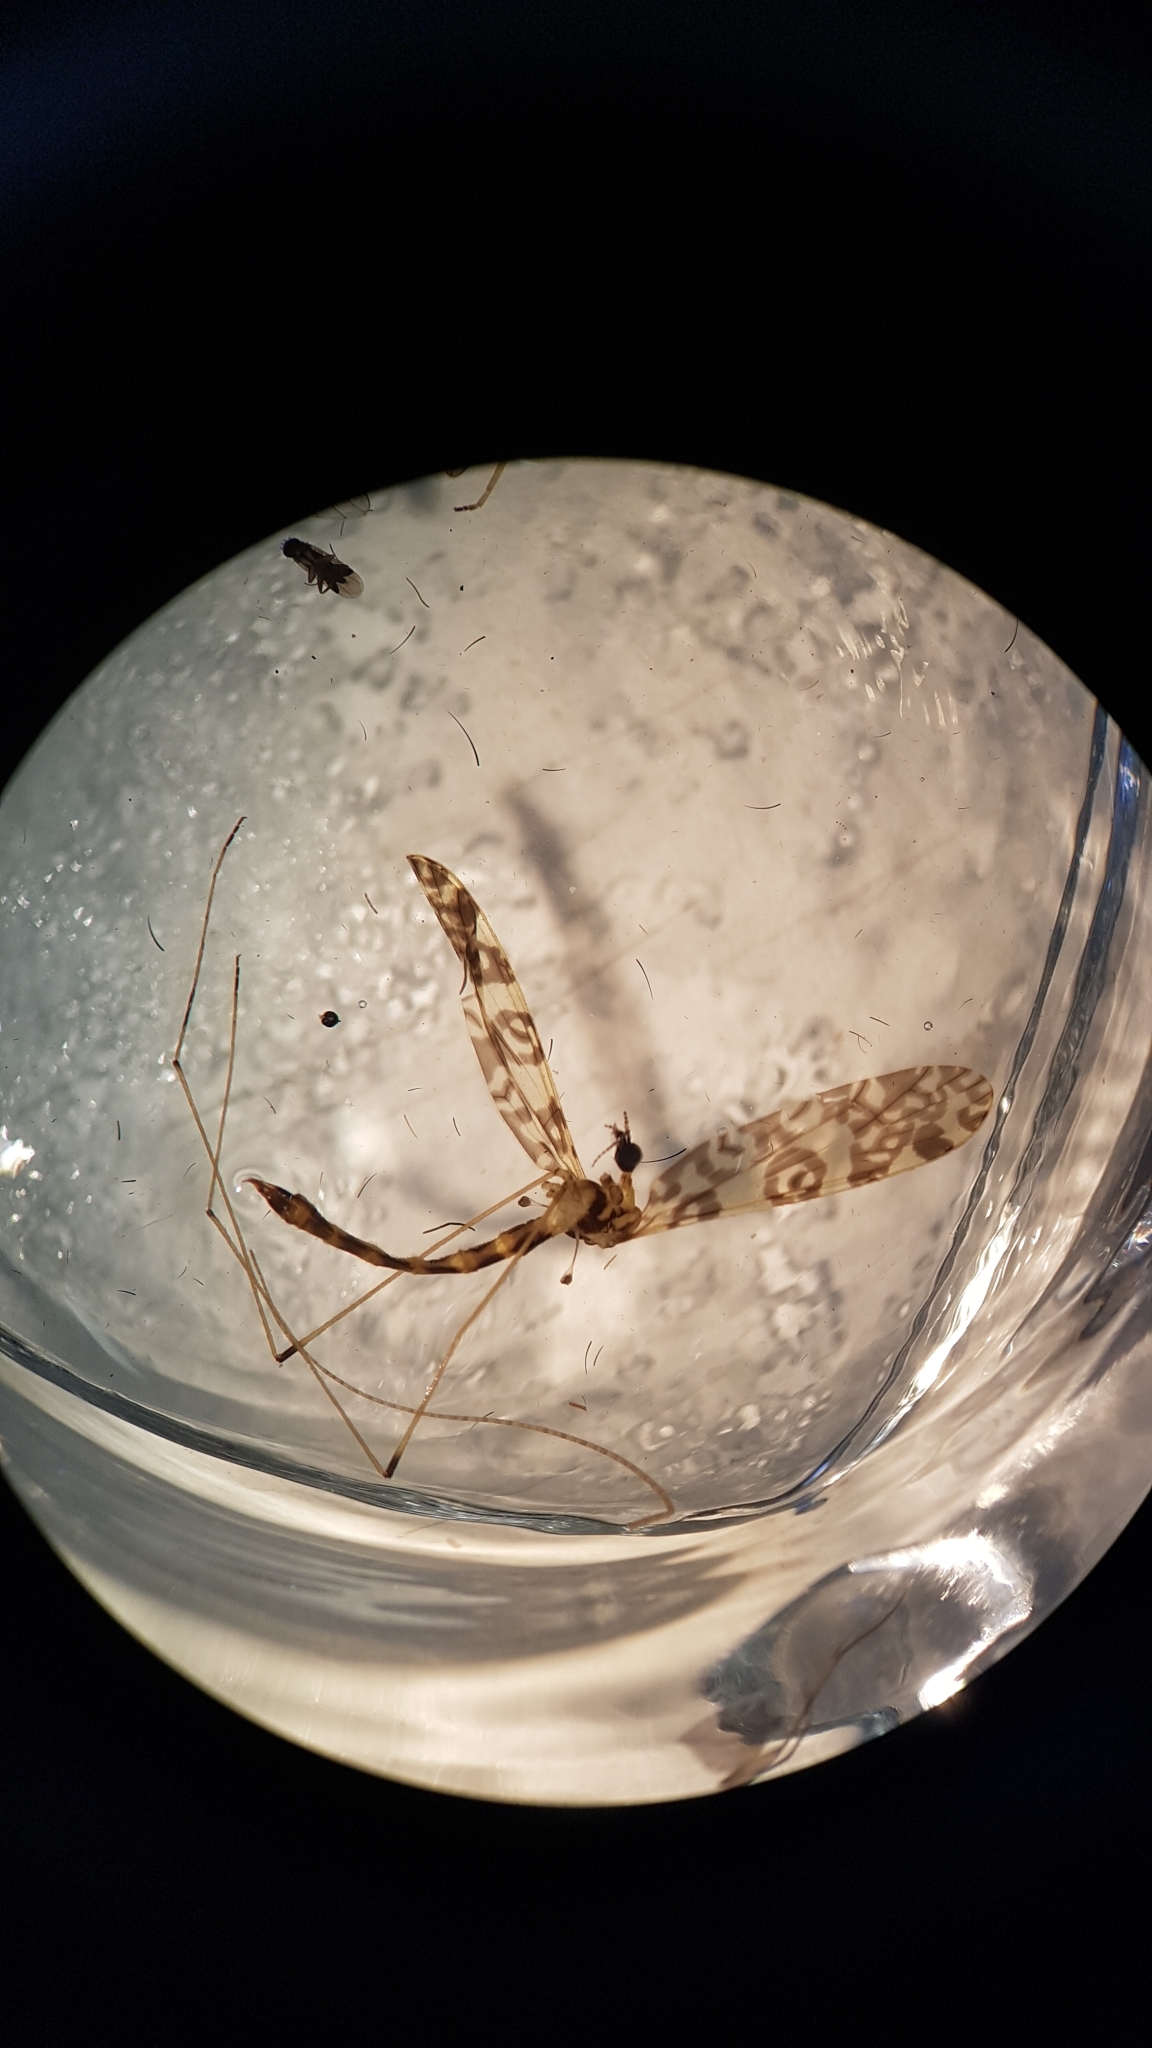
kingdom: Animalia
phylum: Arthropoda
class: Insecta
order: Diptera
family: Limoniidae
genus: Discobola
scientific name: Discobola gibberina
